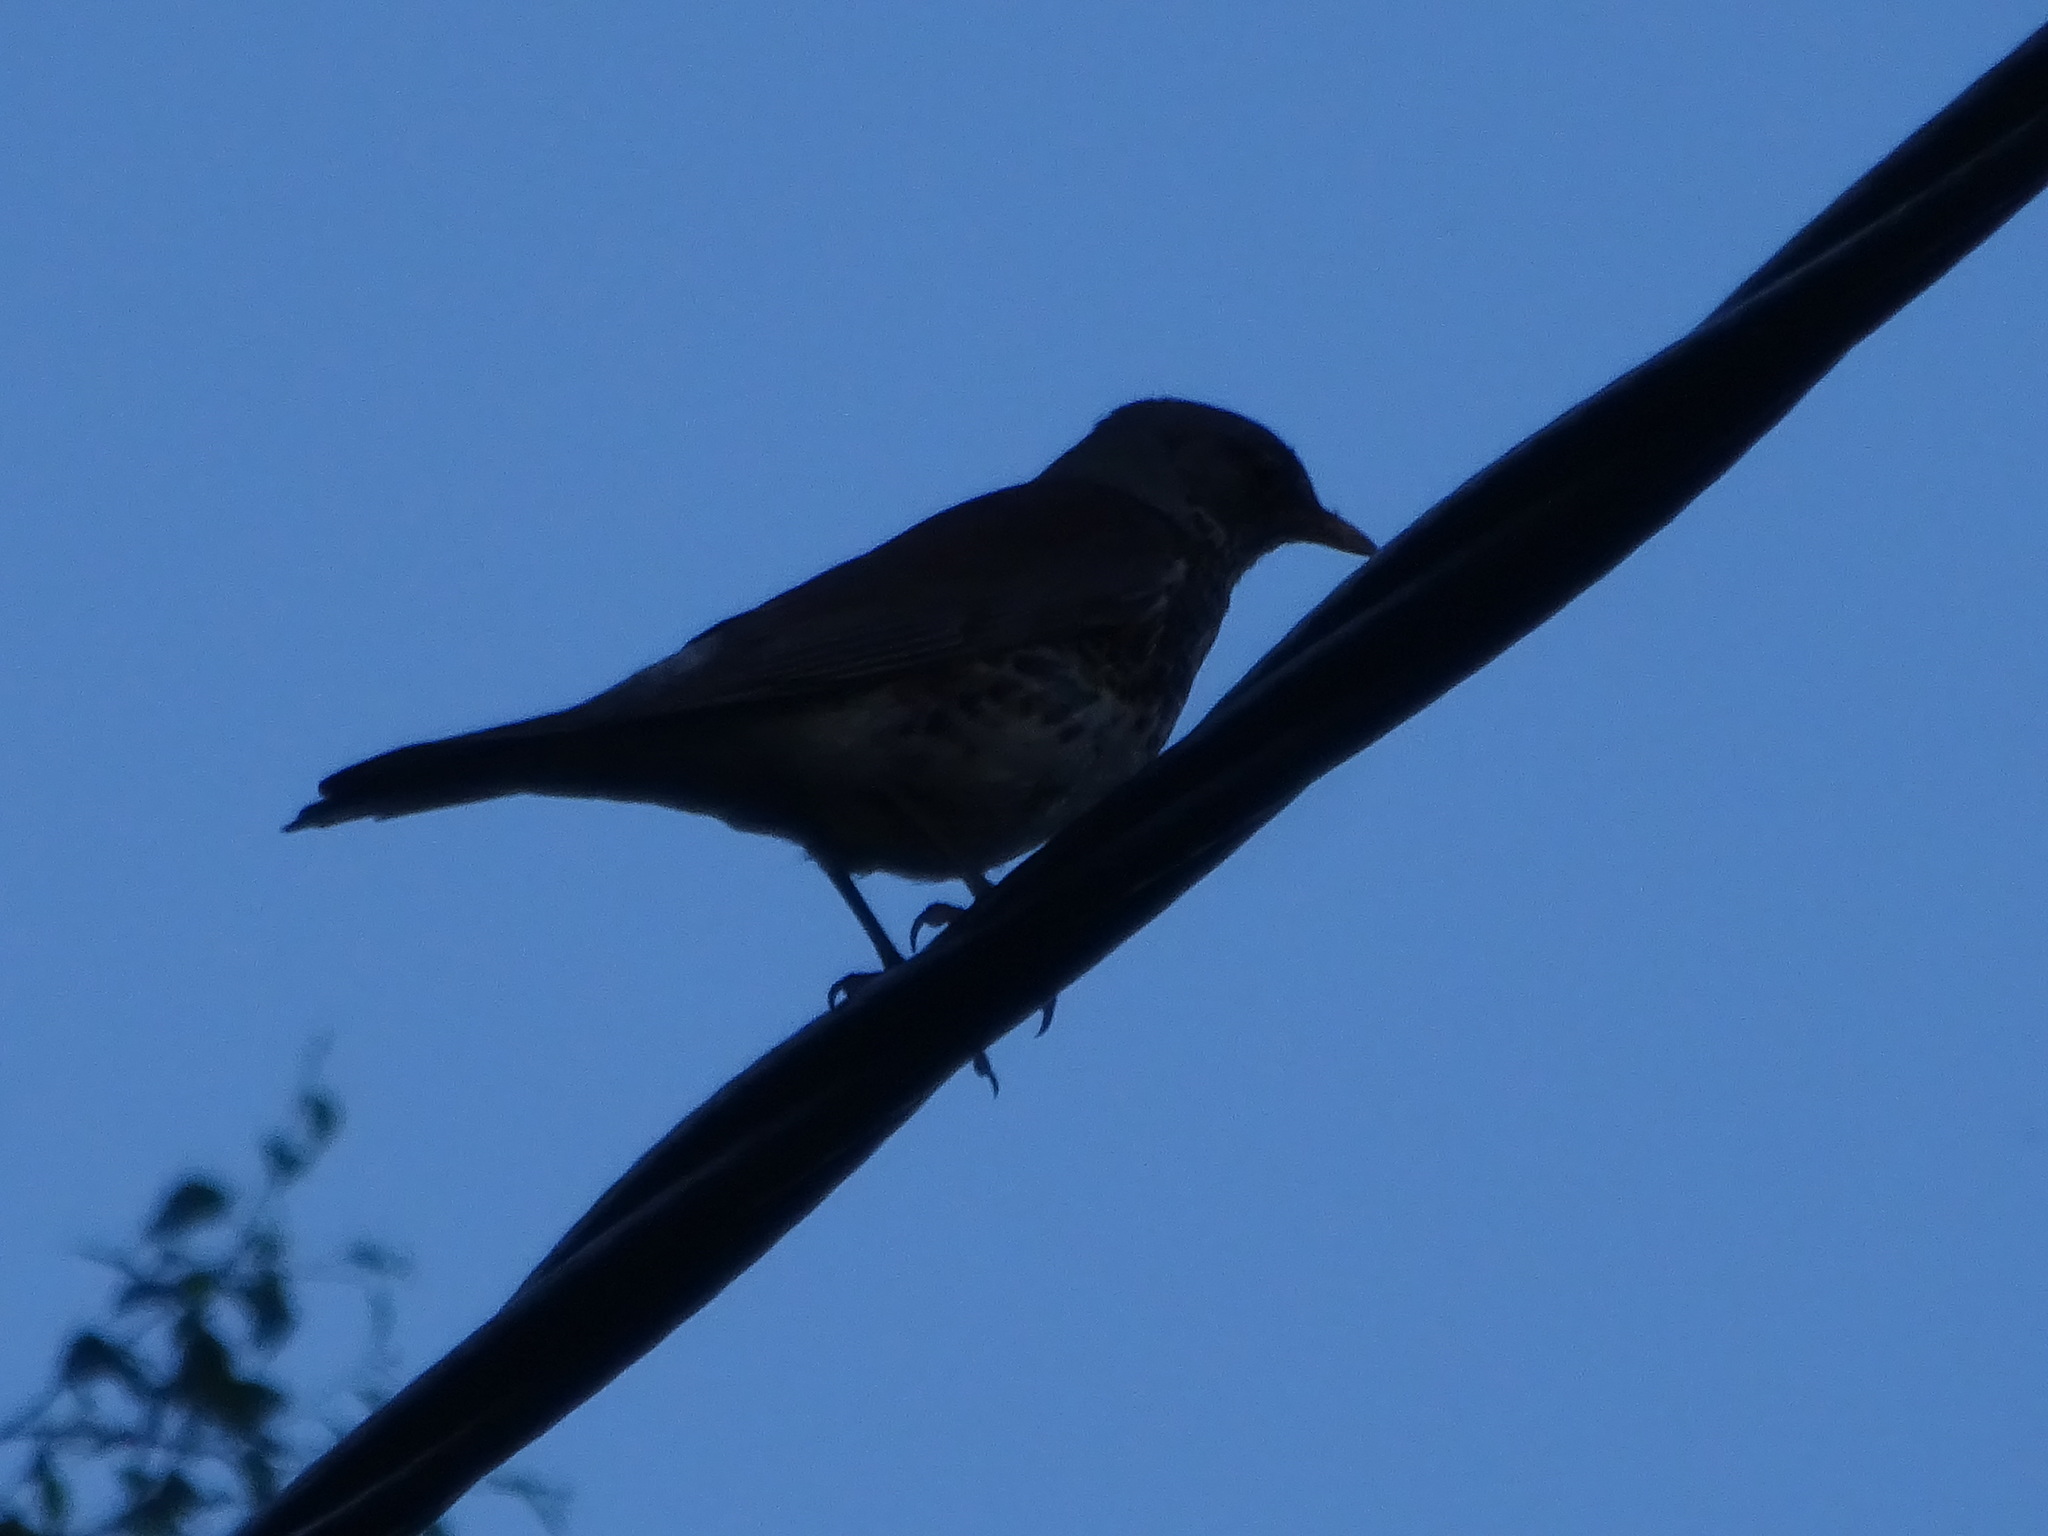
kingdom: Animalia
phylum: Chordata
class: Aves
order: Passeriformes
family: Turdidae
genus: Turdus
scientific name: Turdus pilaris
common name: Fieldfare
